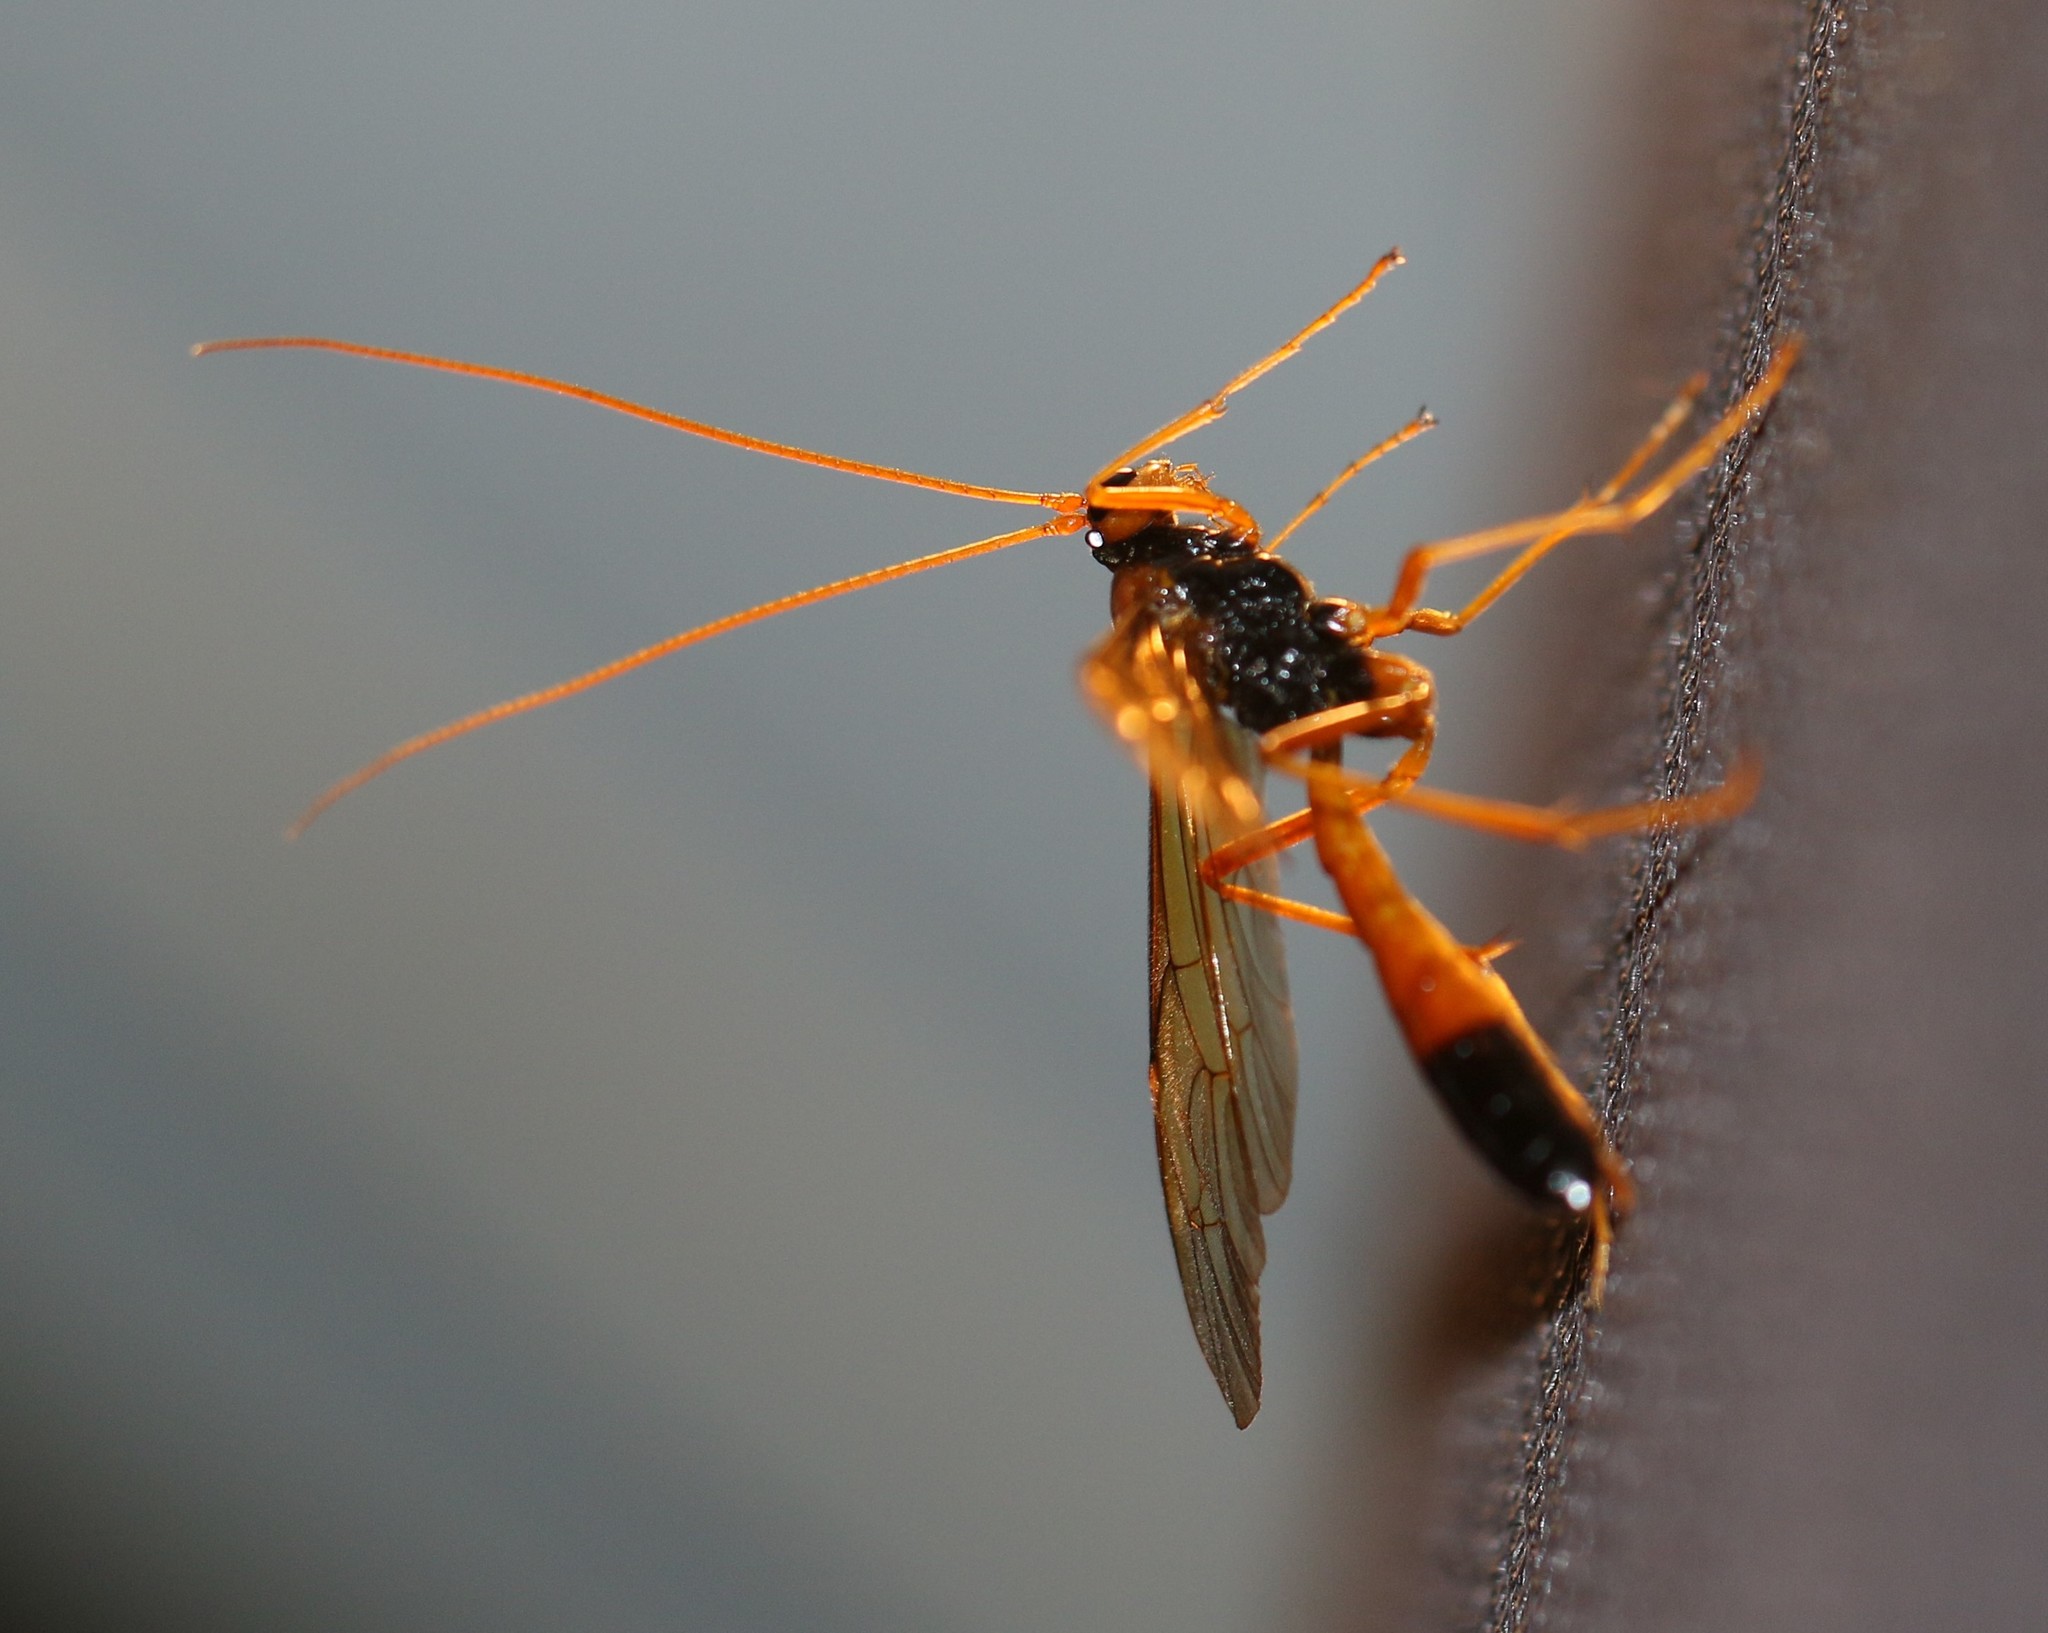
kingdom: Animalia
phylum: Arthropoda
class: Insecta
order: Hymenoptera
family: Ichneumonidae
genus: Opheltes
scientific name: Opheltes glaucopterus
